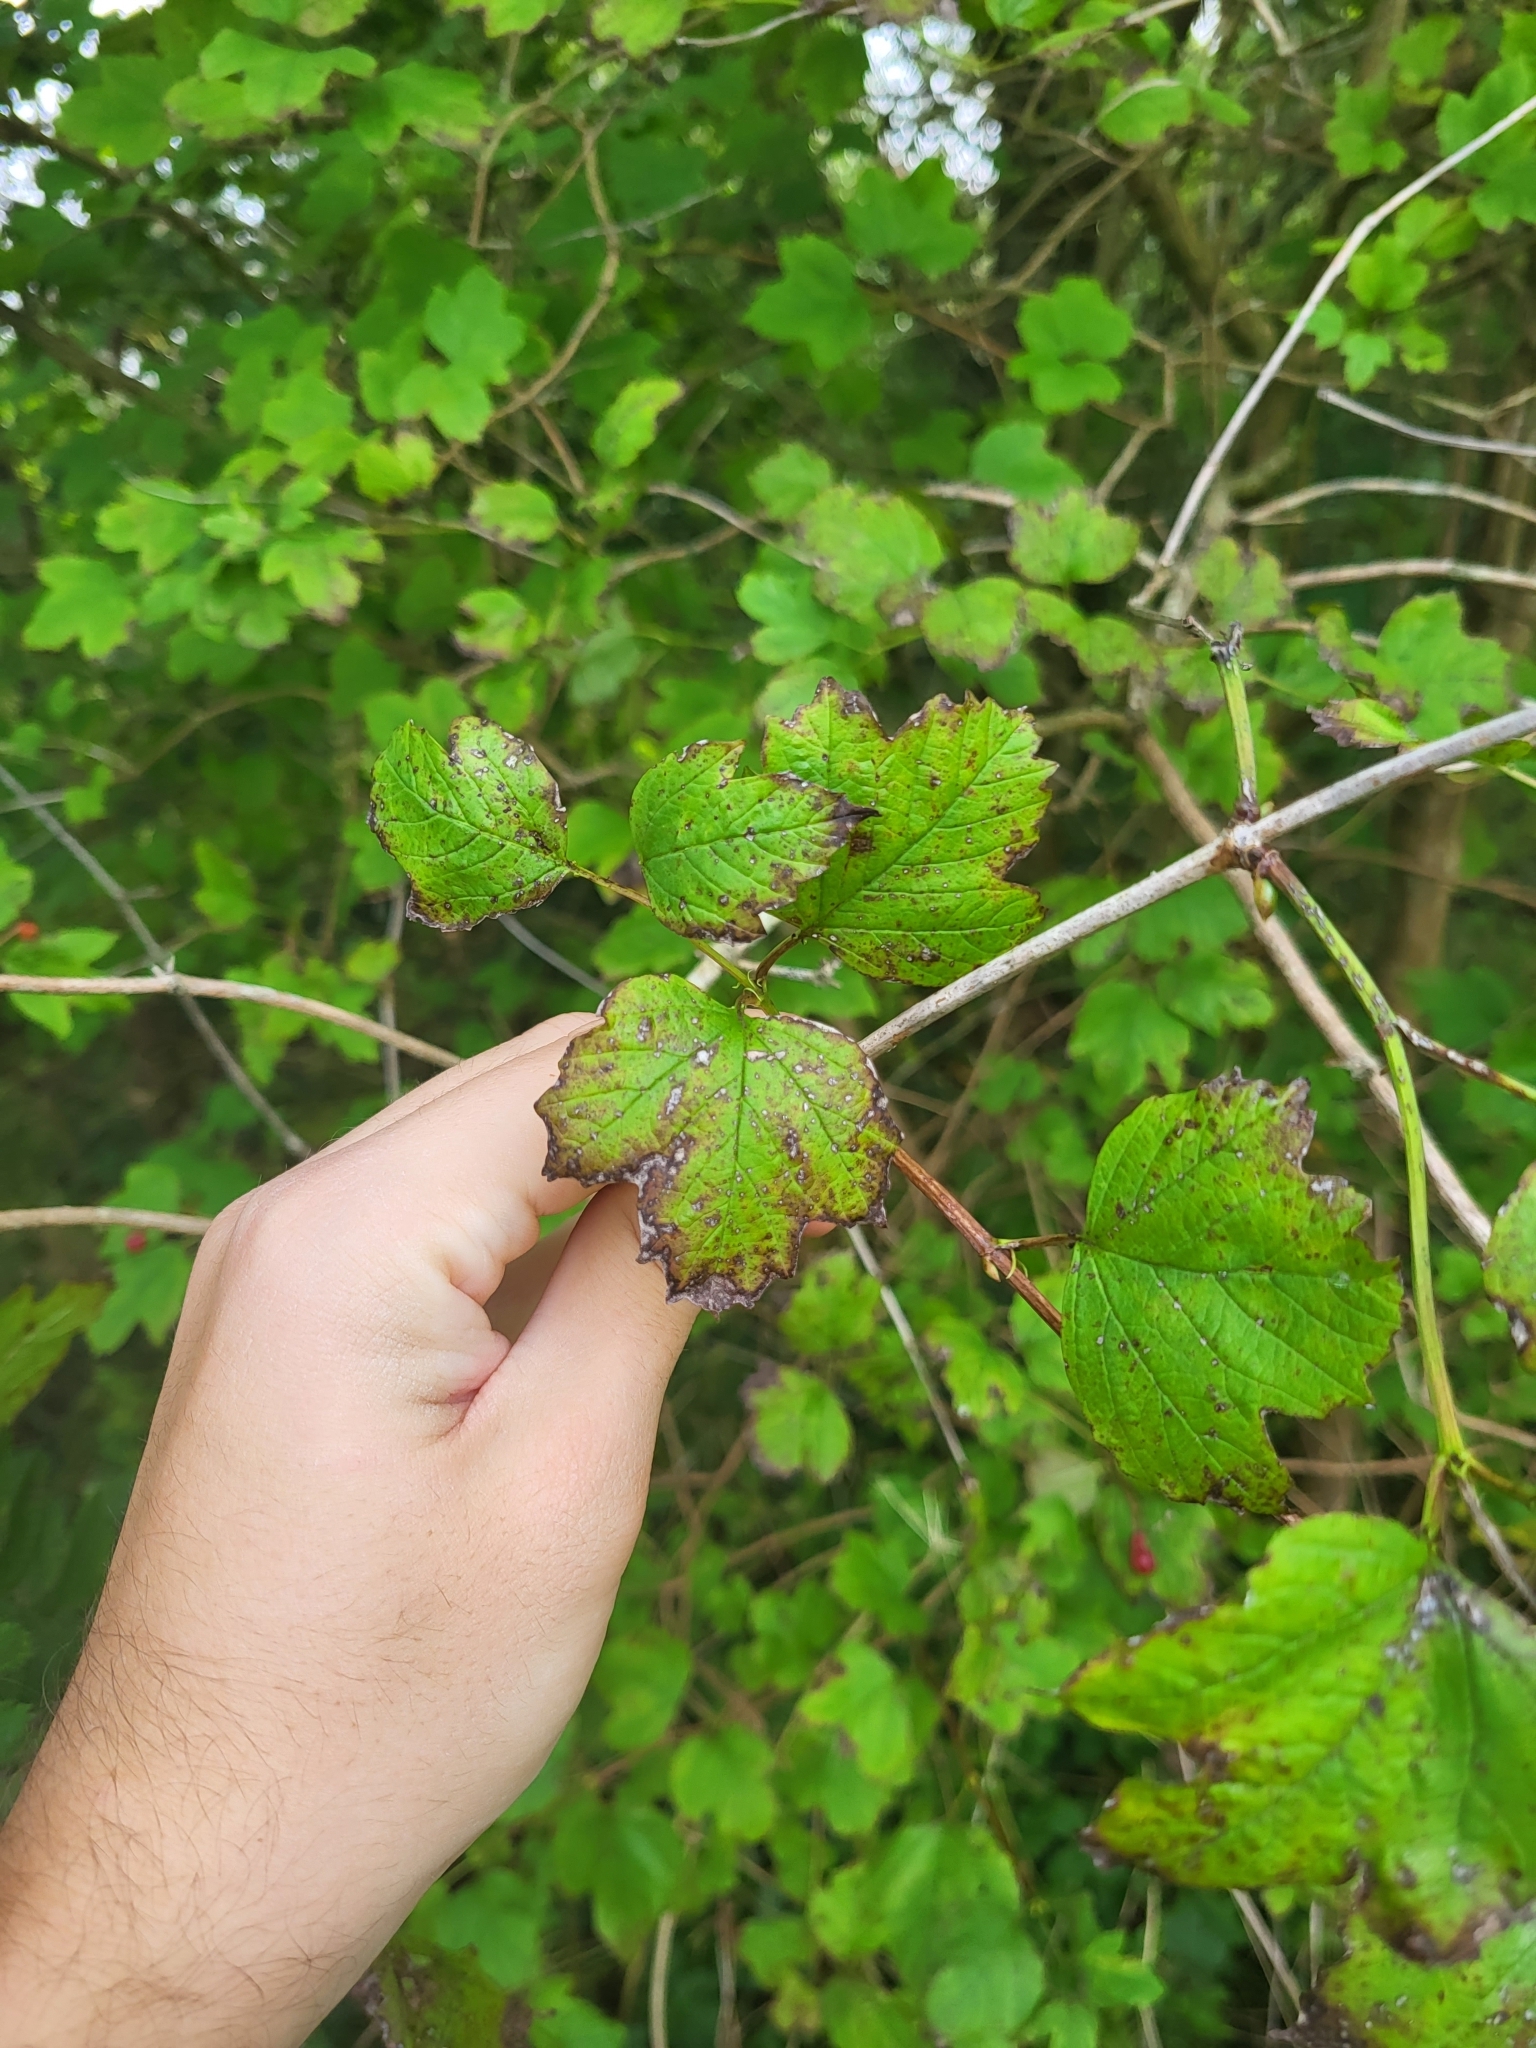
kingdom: Plantae
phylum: Tracheophyta
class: Magnoliopsida
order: Dipsacales
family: Viburnaceae
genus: Viburnum
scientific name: Viburnum opulus
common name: Guelder-rose
